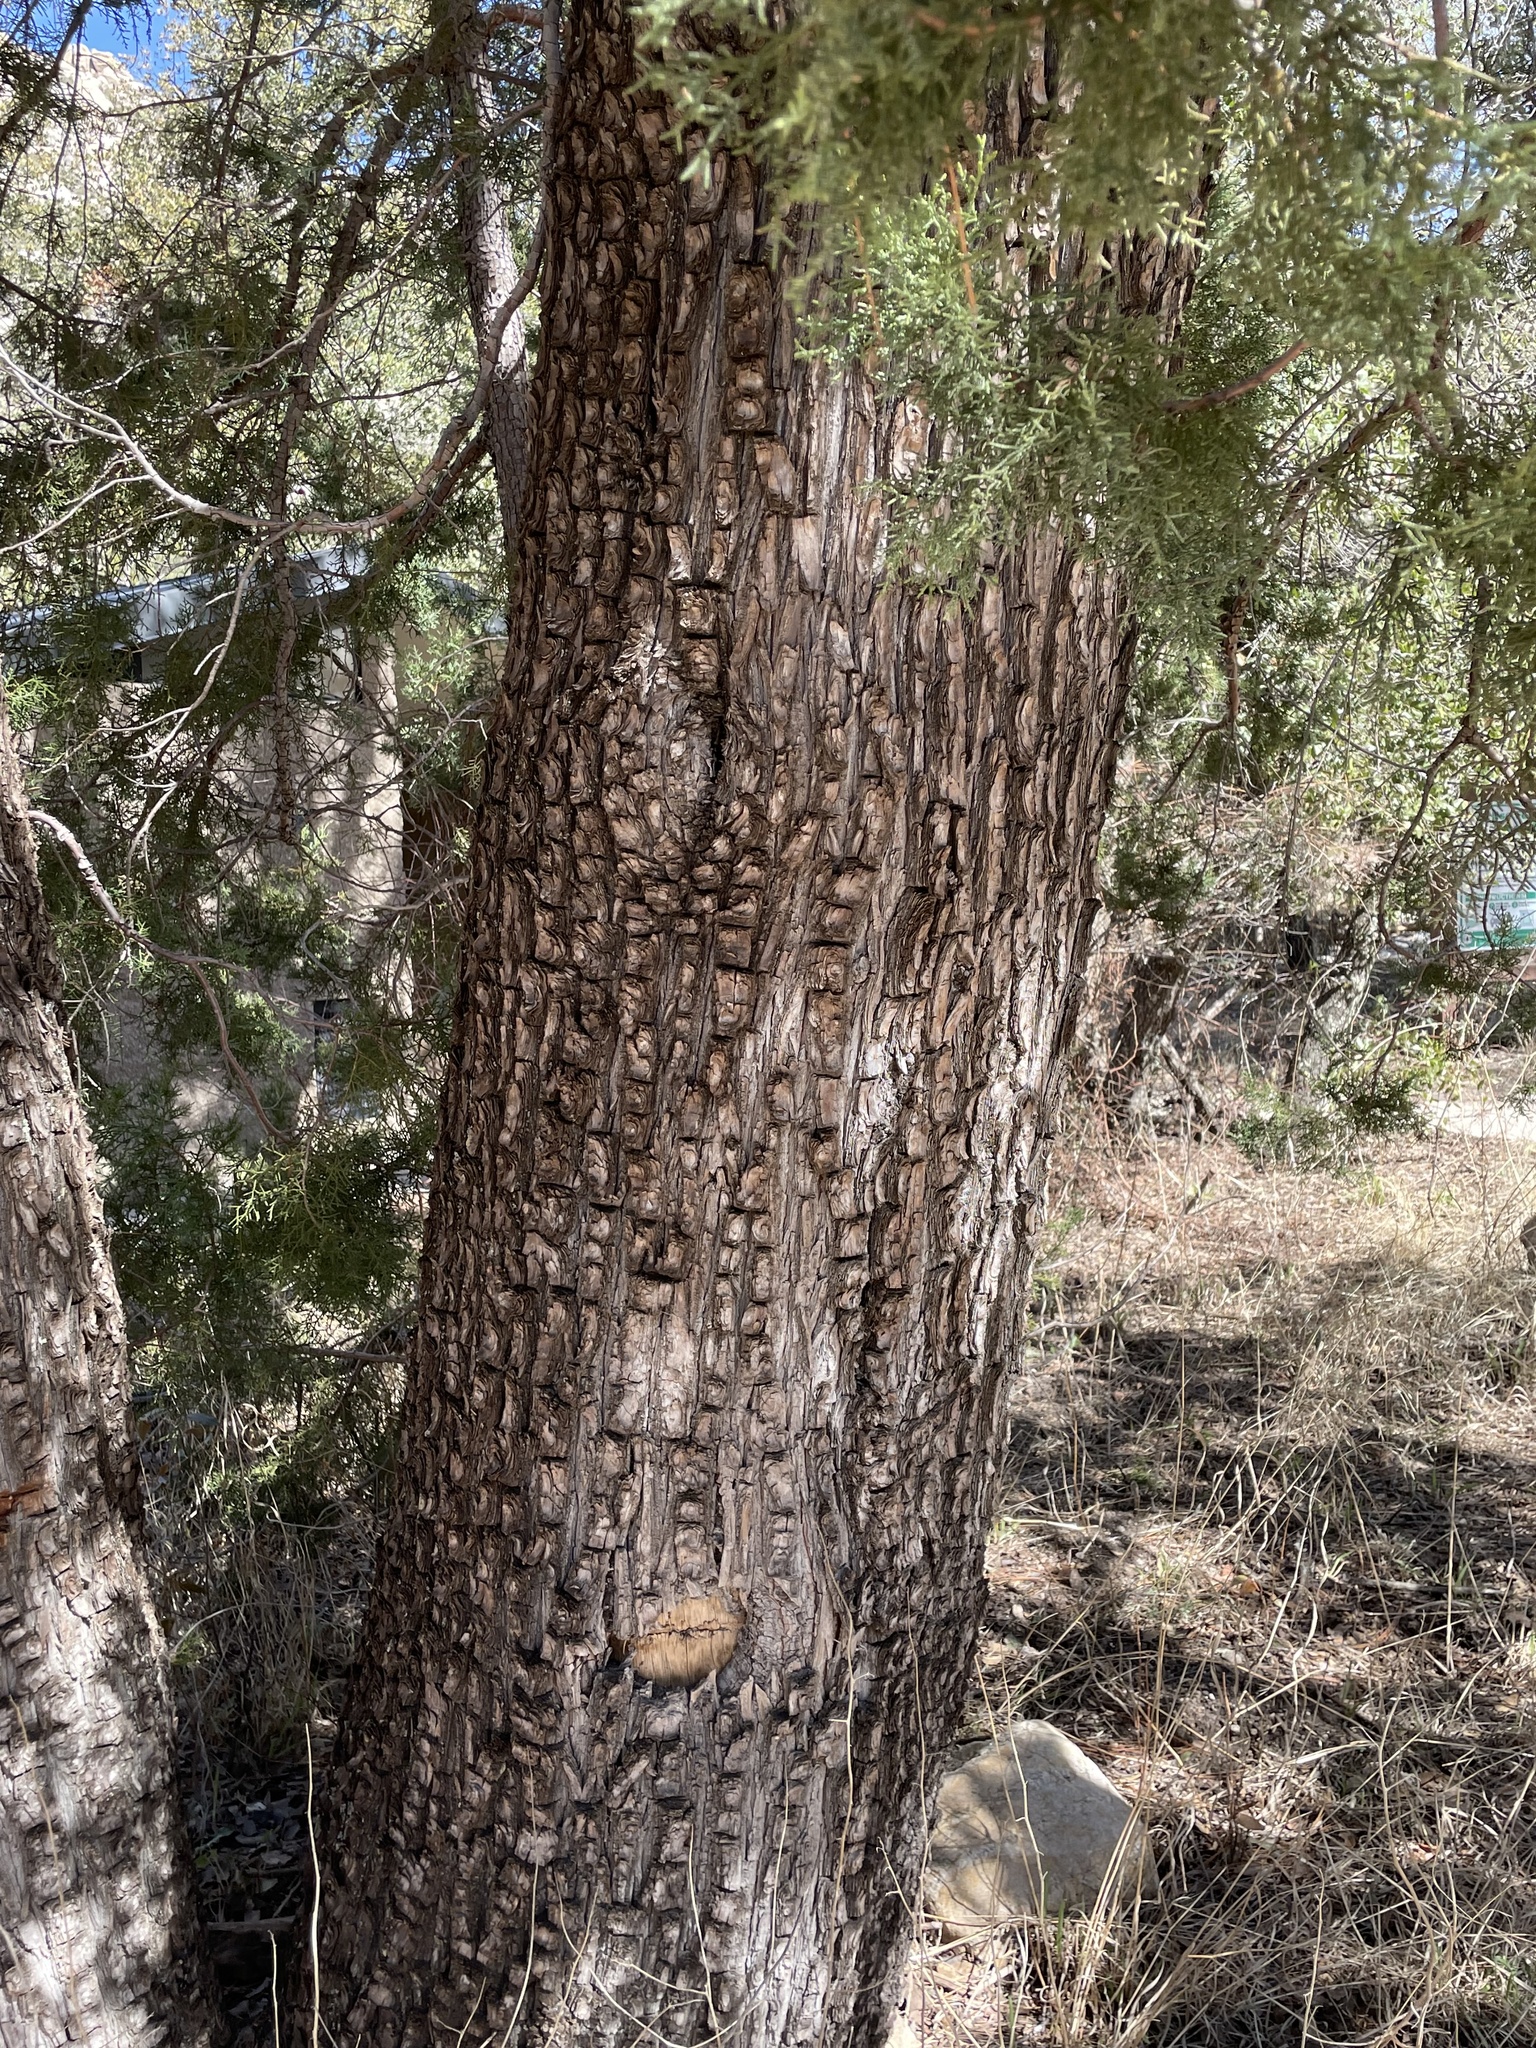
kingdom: Plantae
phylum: Tracheophyta
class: Pinopsida
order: Pinales
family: Cupressaceae
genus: Juniperus
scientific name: Juniperus deppeana
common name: Alligator juniper
